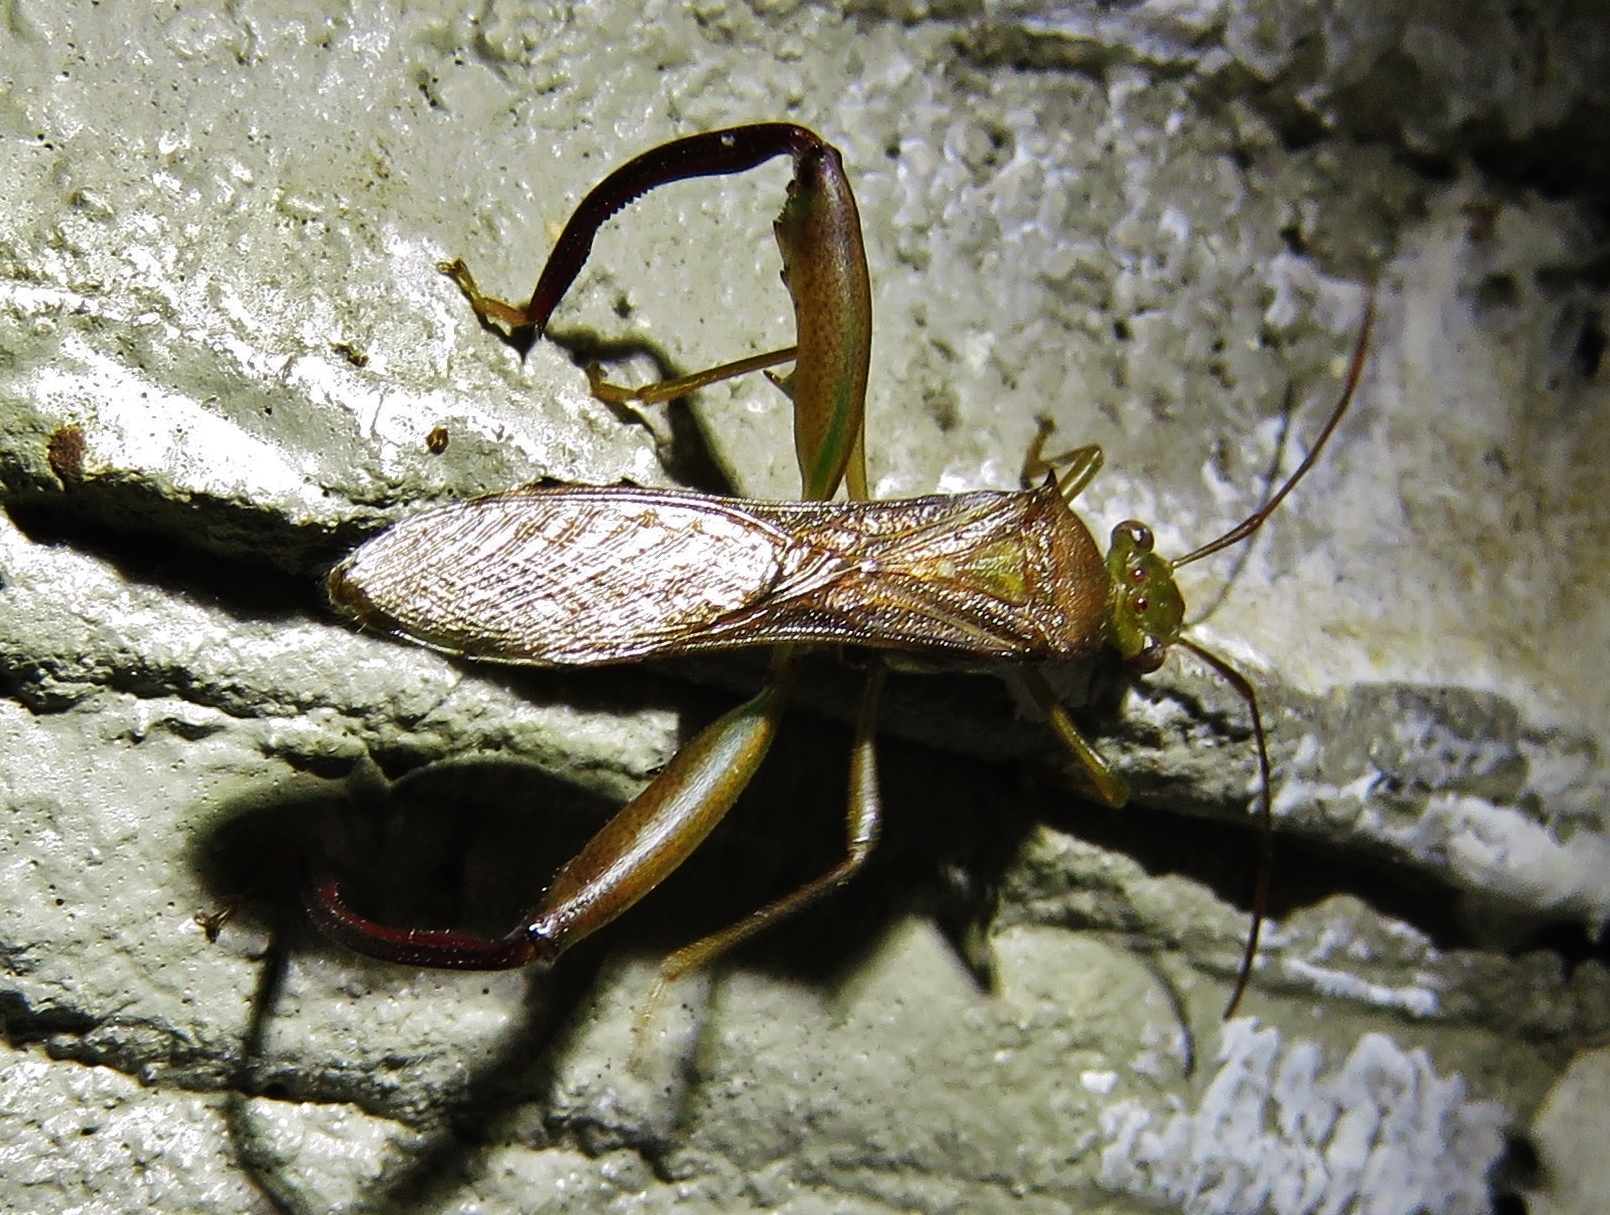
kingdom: Animalia
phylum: Arthropoda
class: Insecta
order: Hemiptera
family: Alydidae
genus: Hyalymenus
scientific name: Hyalymenus tarsatus
